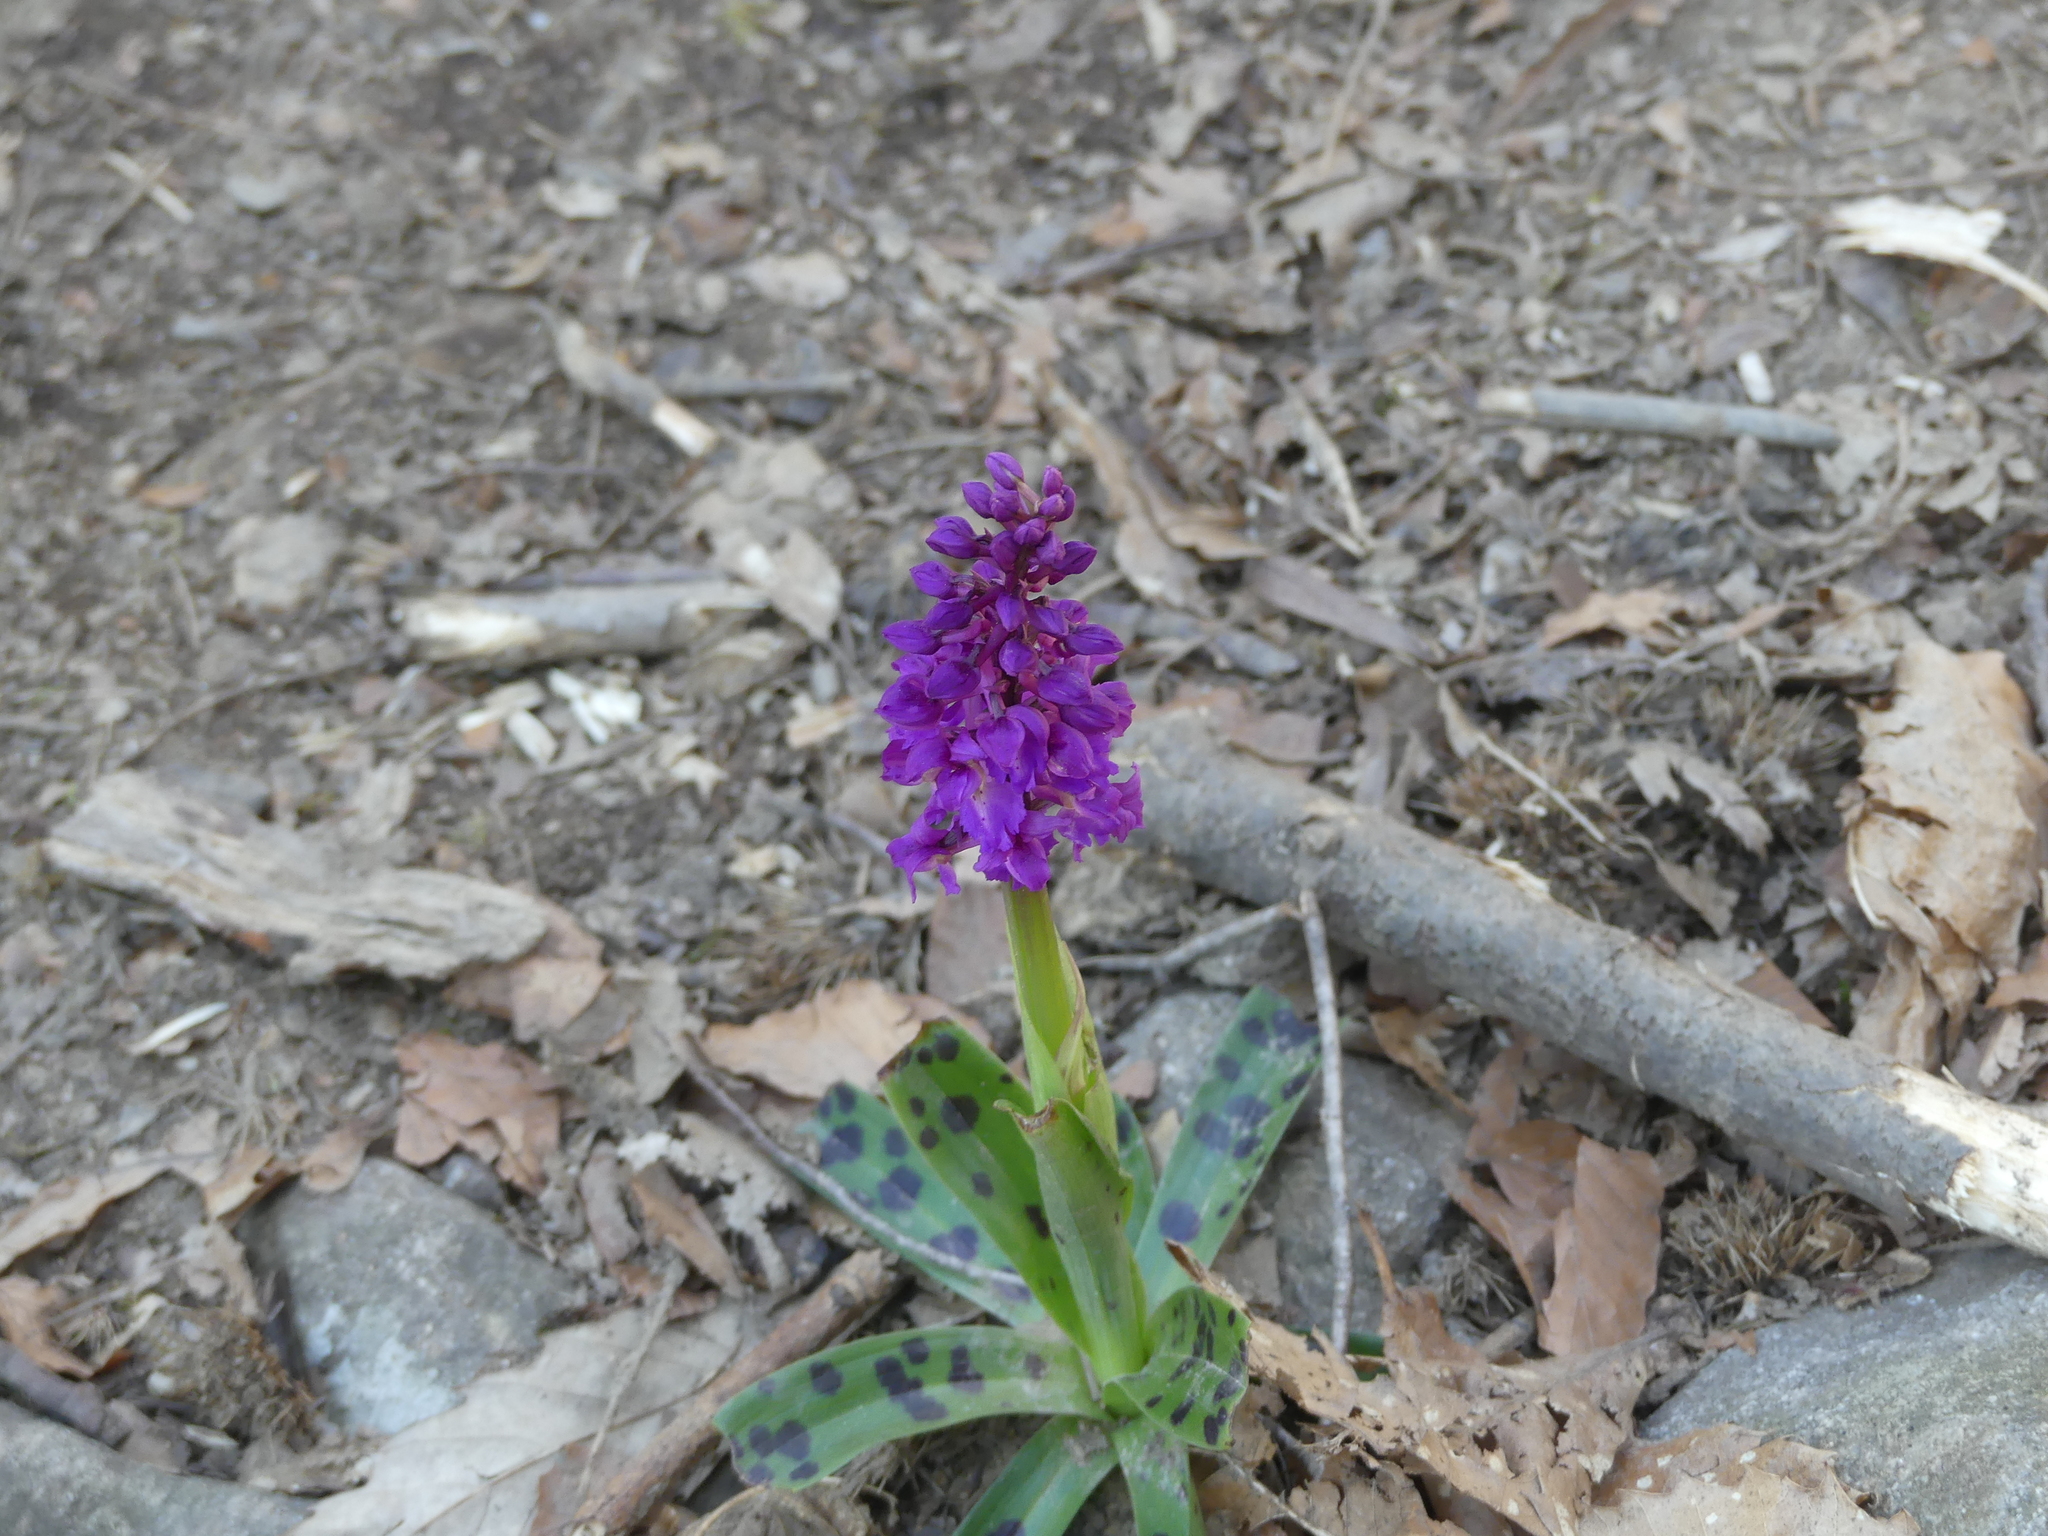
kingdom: Plantae
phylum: Tracheophyta
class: Liliopsida
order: Asparagales
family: Orchidaceae
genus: Orchis
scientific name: Orchis mascula
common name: Early-purple orchid
